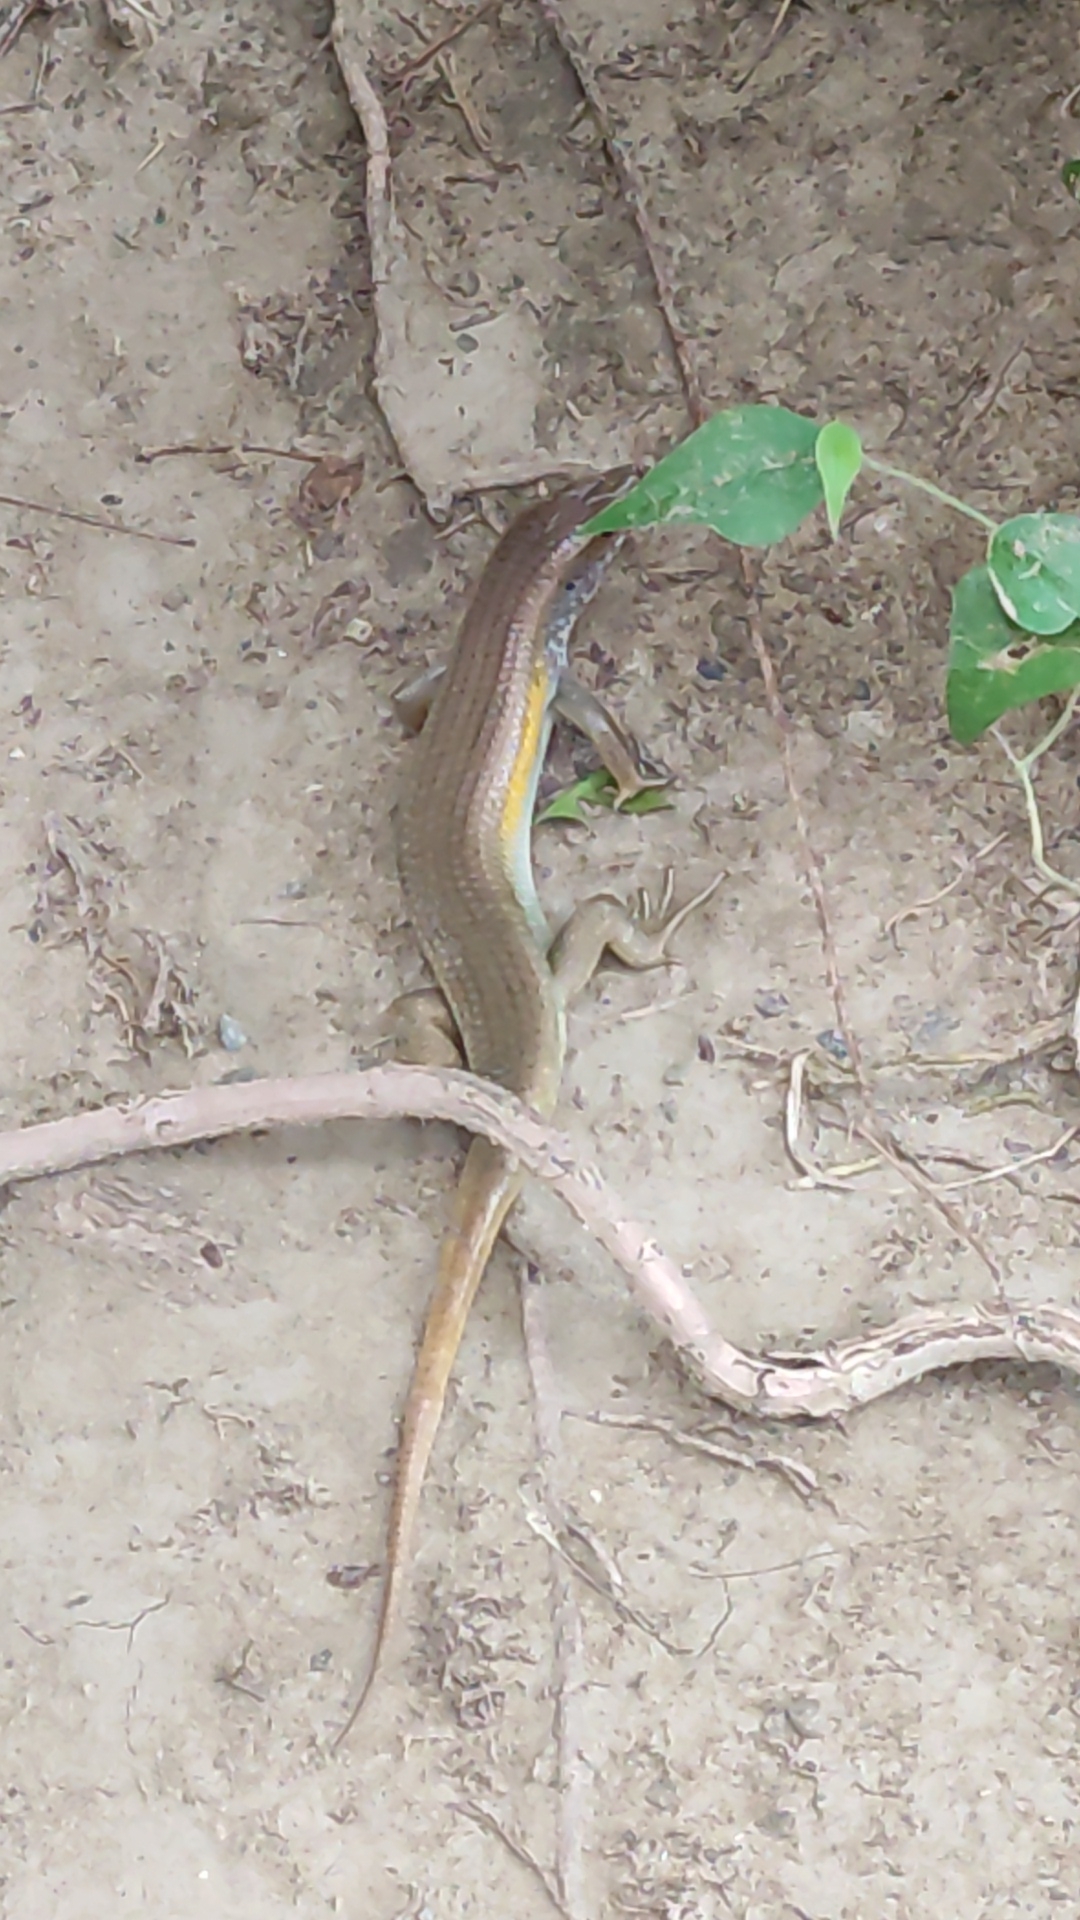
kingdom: Animalia
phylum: Chordata
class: Squamata
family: Scincidae
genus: Eutropis
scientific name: Eutropis multifasciata
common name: Common mabuya
